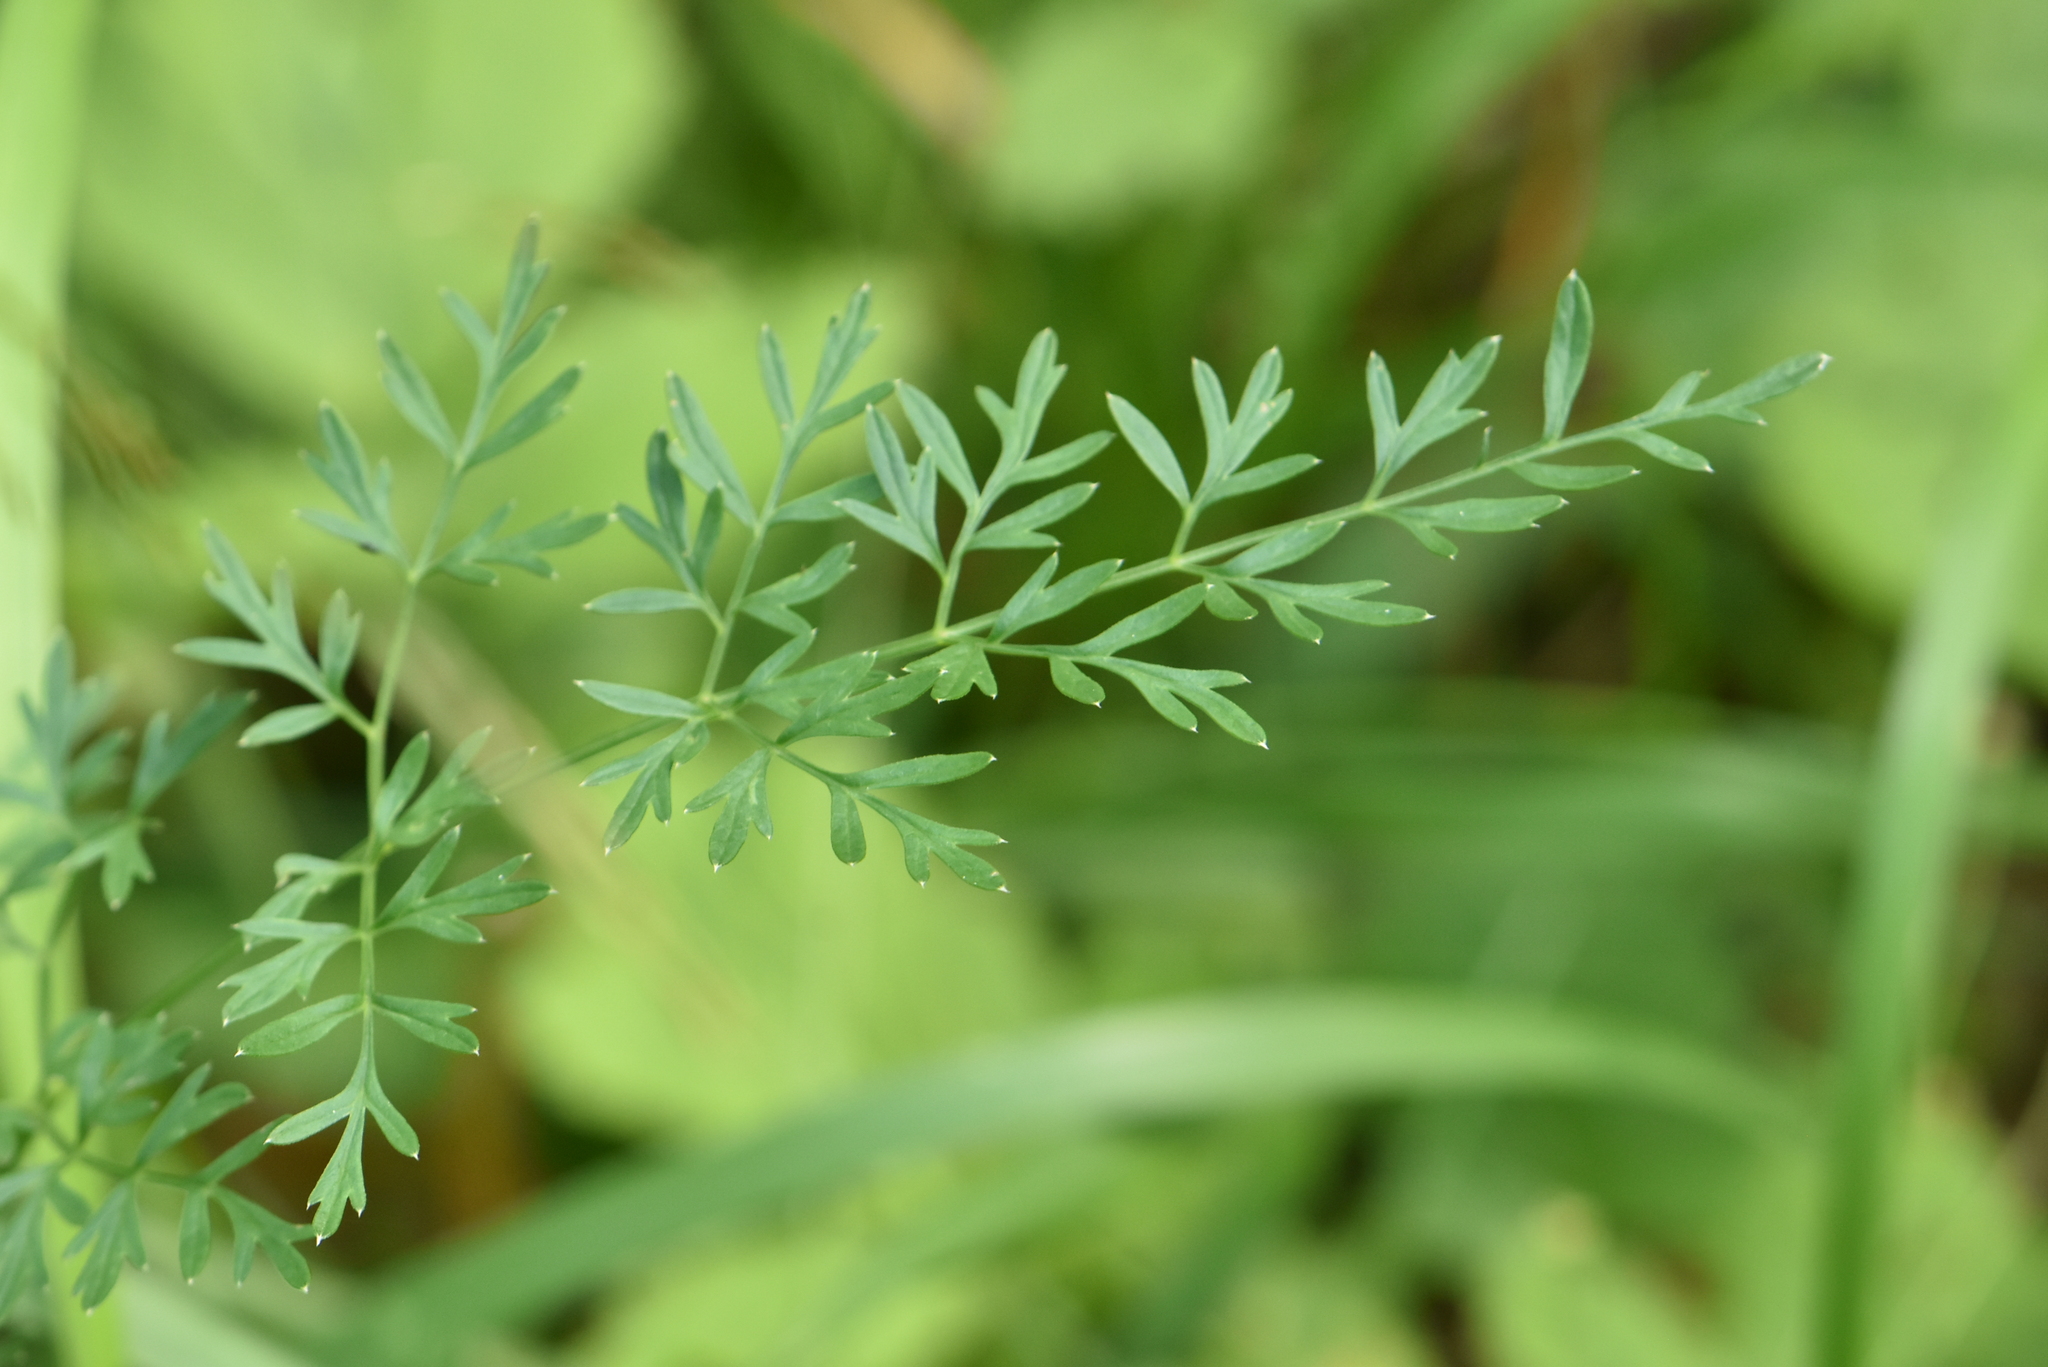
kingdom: Plantae
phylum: Tracheophyta
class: Magnoliopsida
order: Apiales
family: Apiaceae
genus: Selinum
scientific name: Selinum carvifolia
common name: Cambridge milk-parsley
